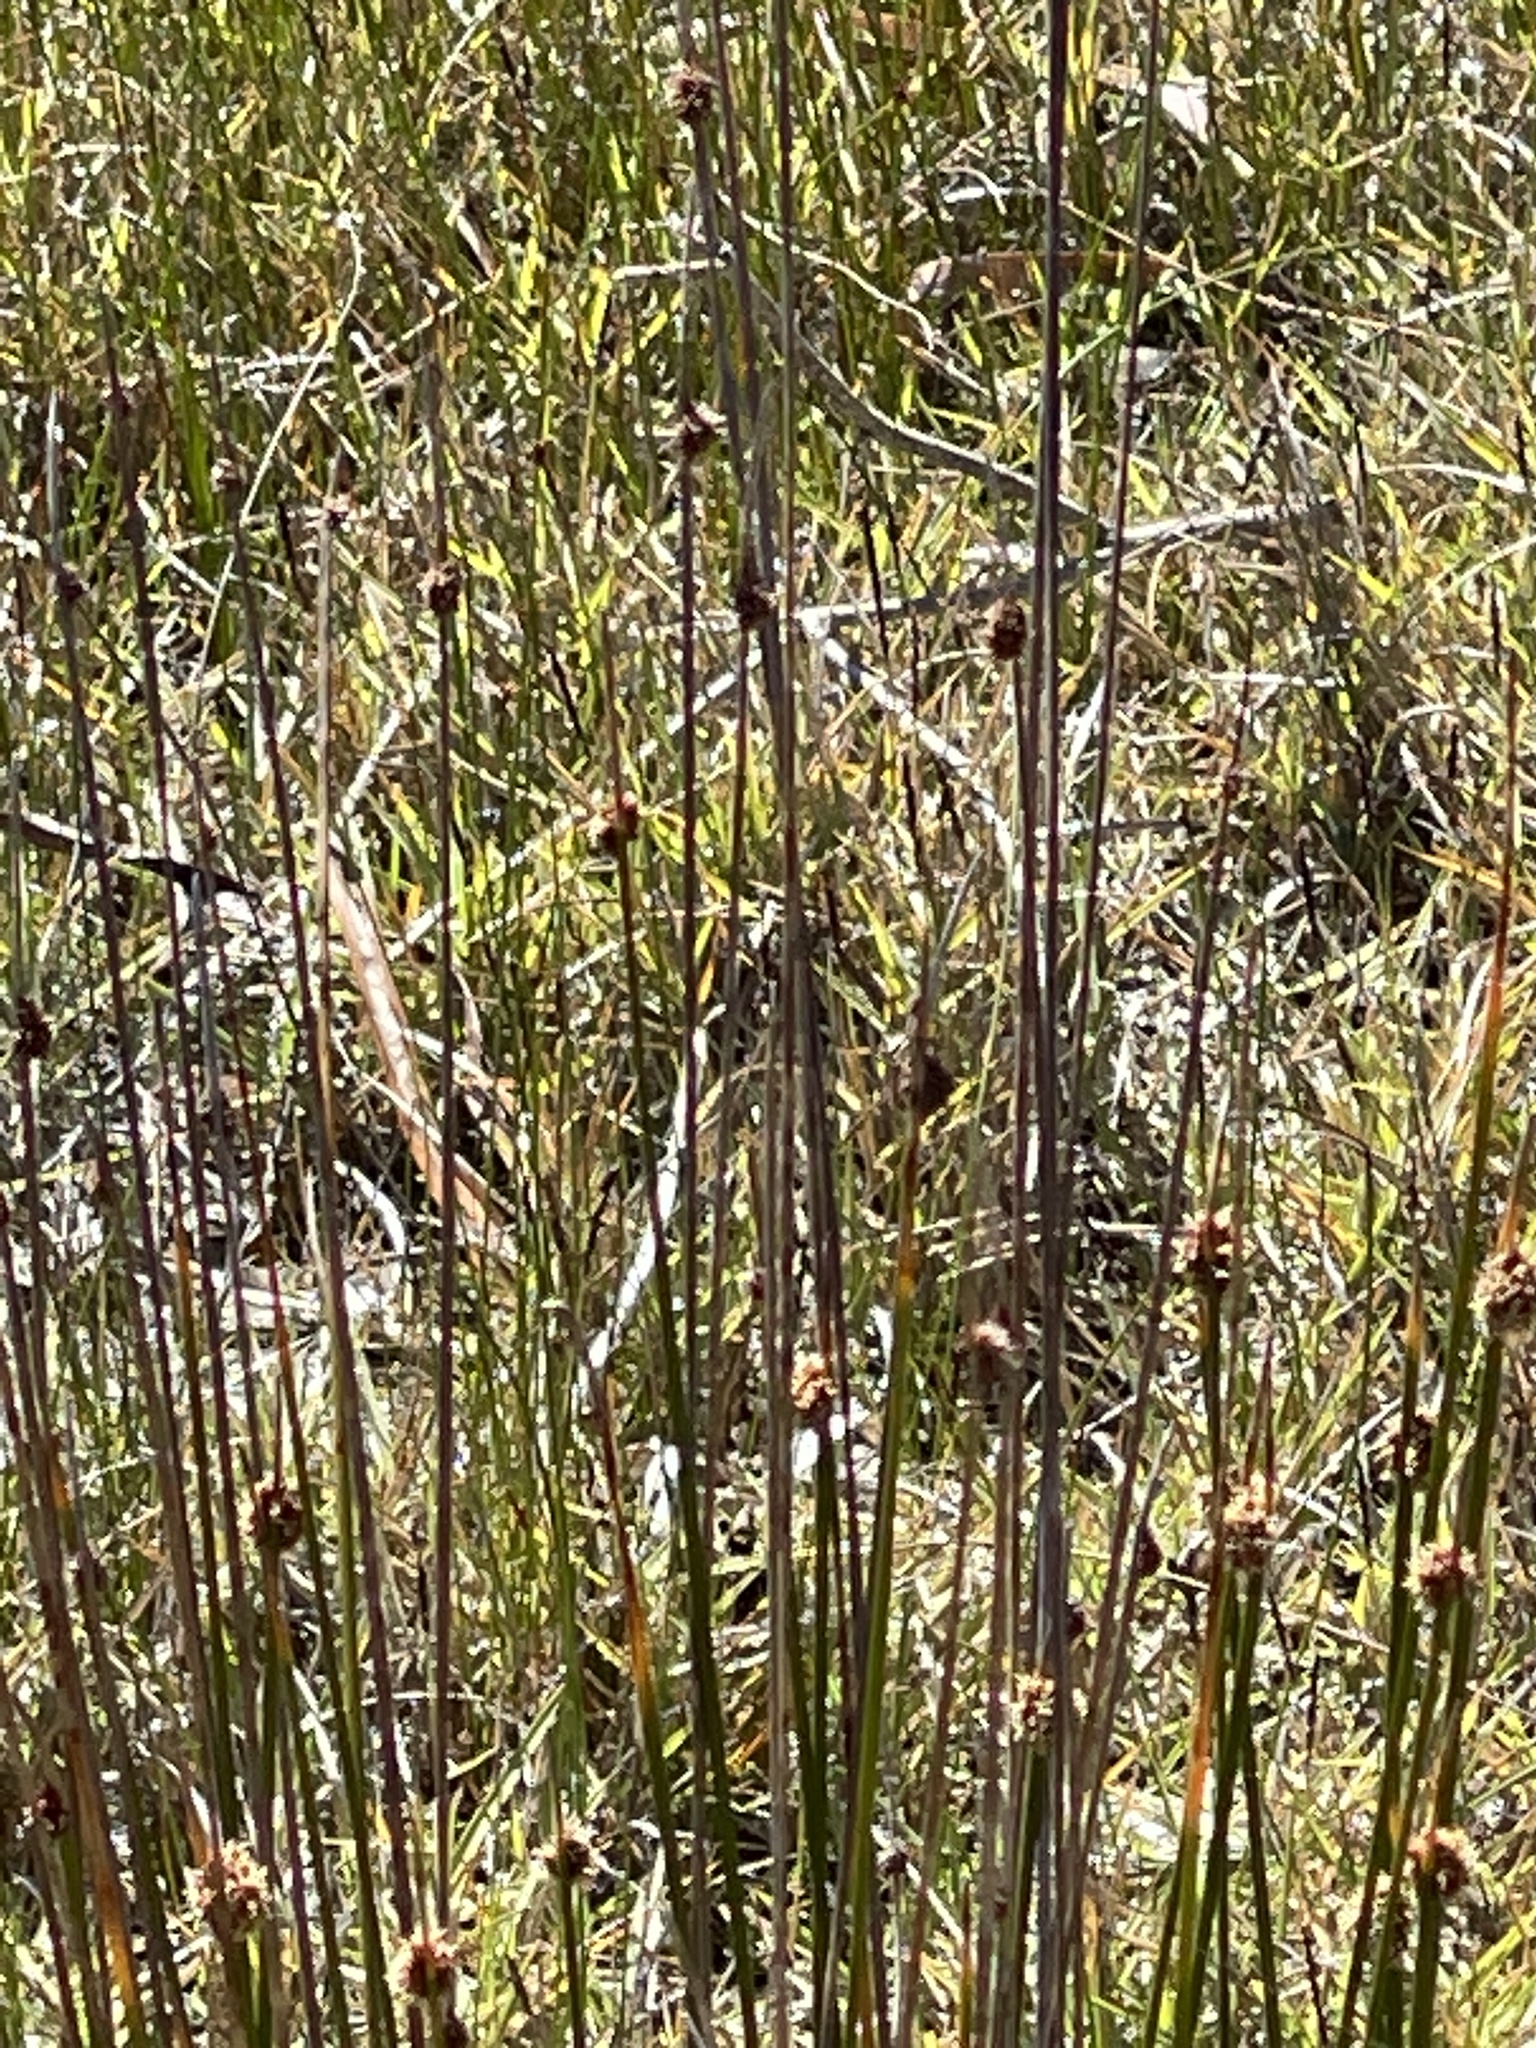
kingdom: Plantae
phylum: Tracheophyta
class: Liliopsida
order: Poales
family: Cyperaceae
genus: Ficinia
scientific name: Ficinia nodosa
